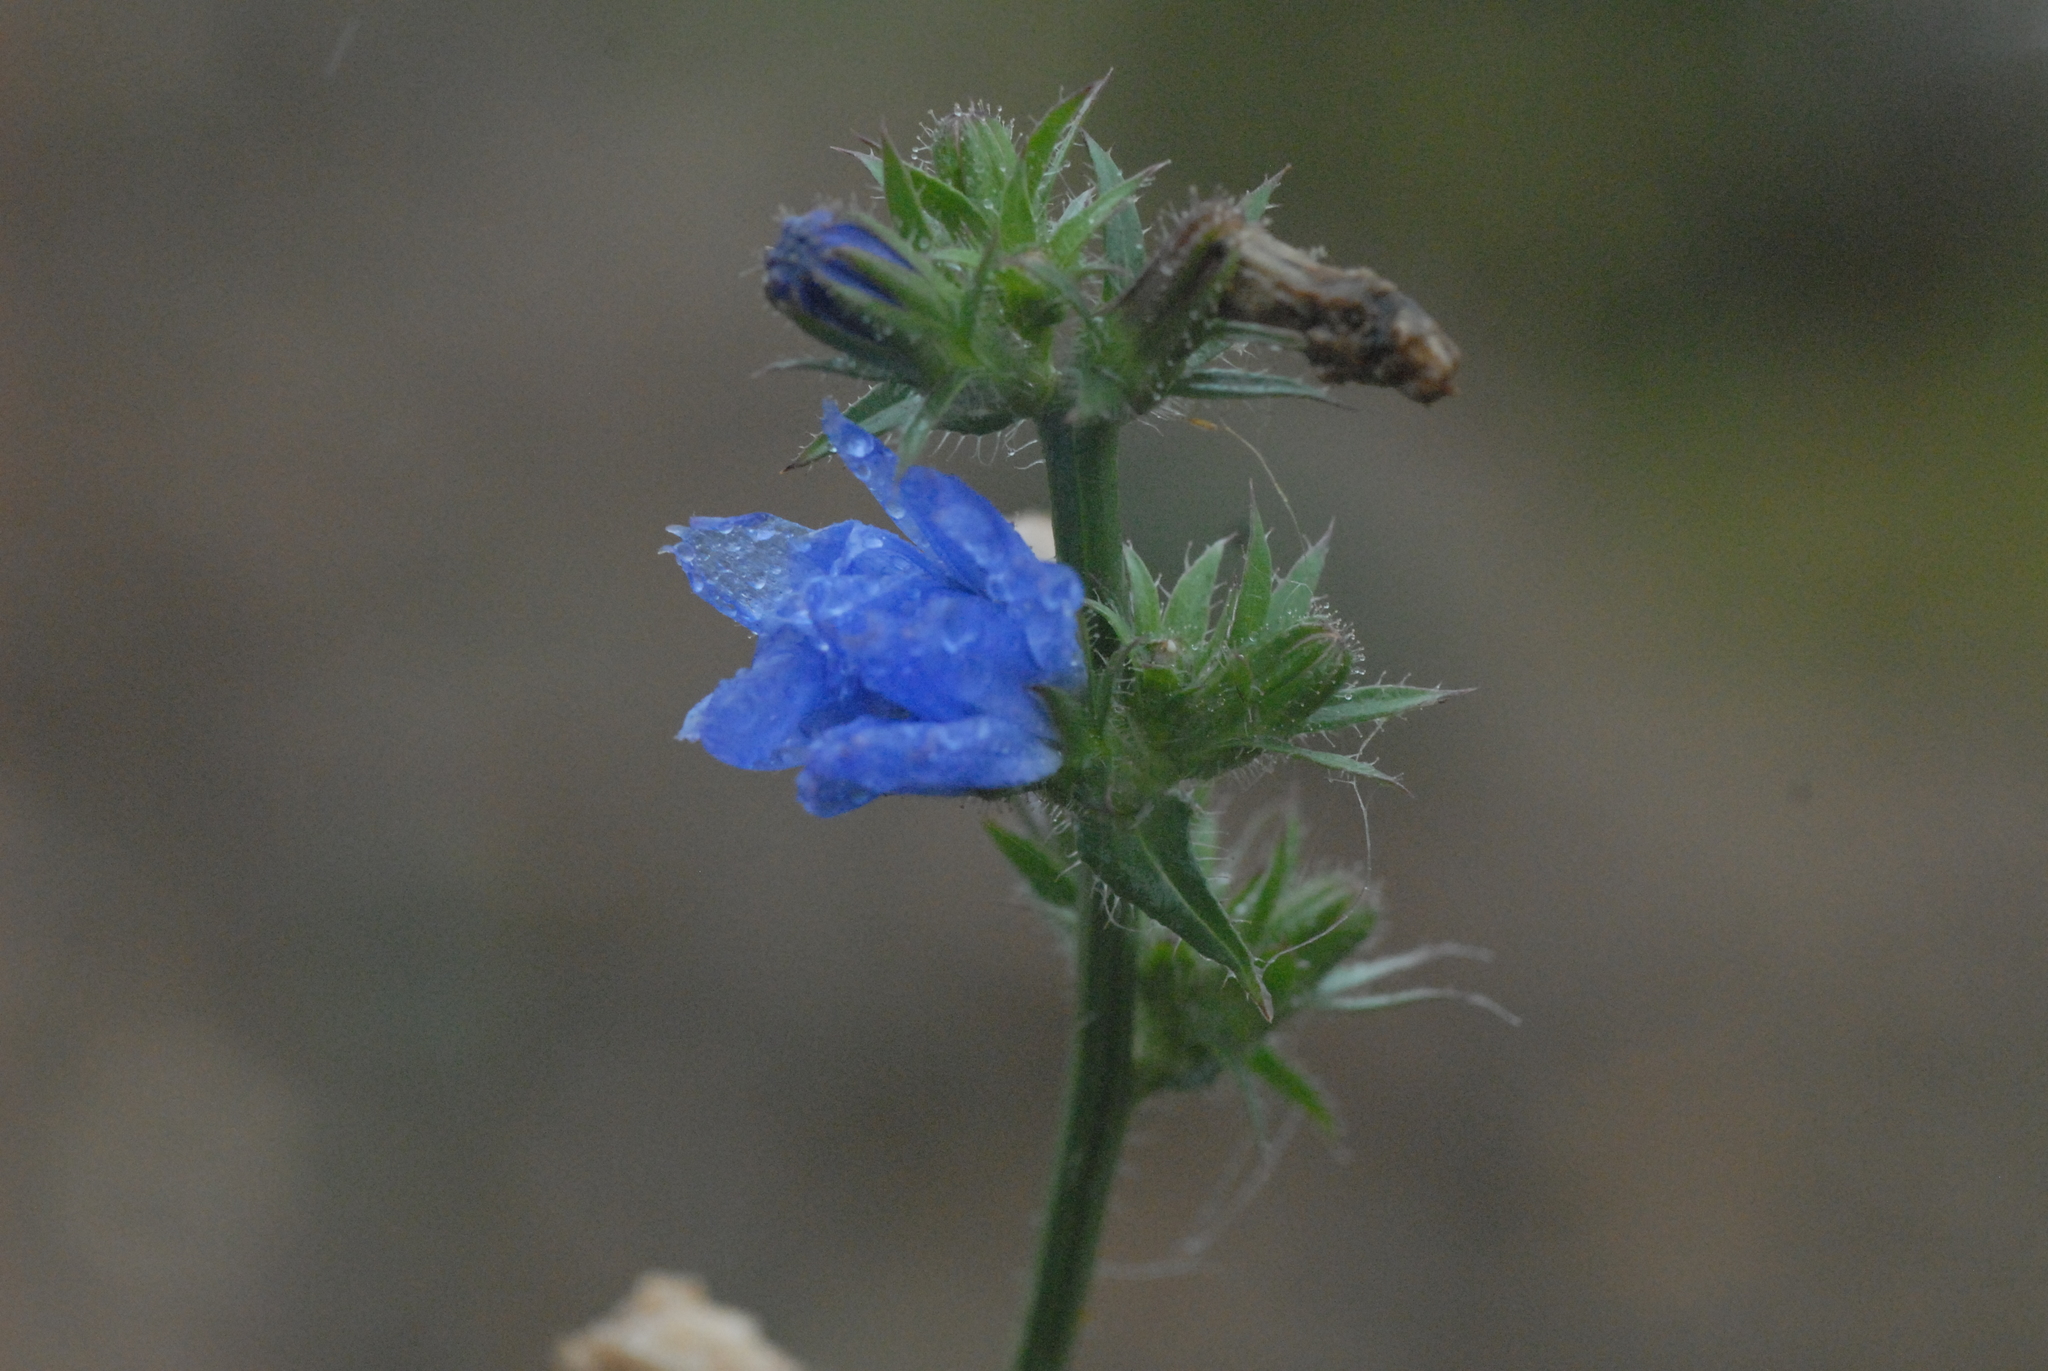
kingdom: Plantae
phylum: Tracheophyta
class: Magnoliopsida
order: Asterales
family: Asteraceae
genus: Cichorium
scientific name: Cichorium intybus
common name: Chicory
